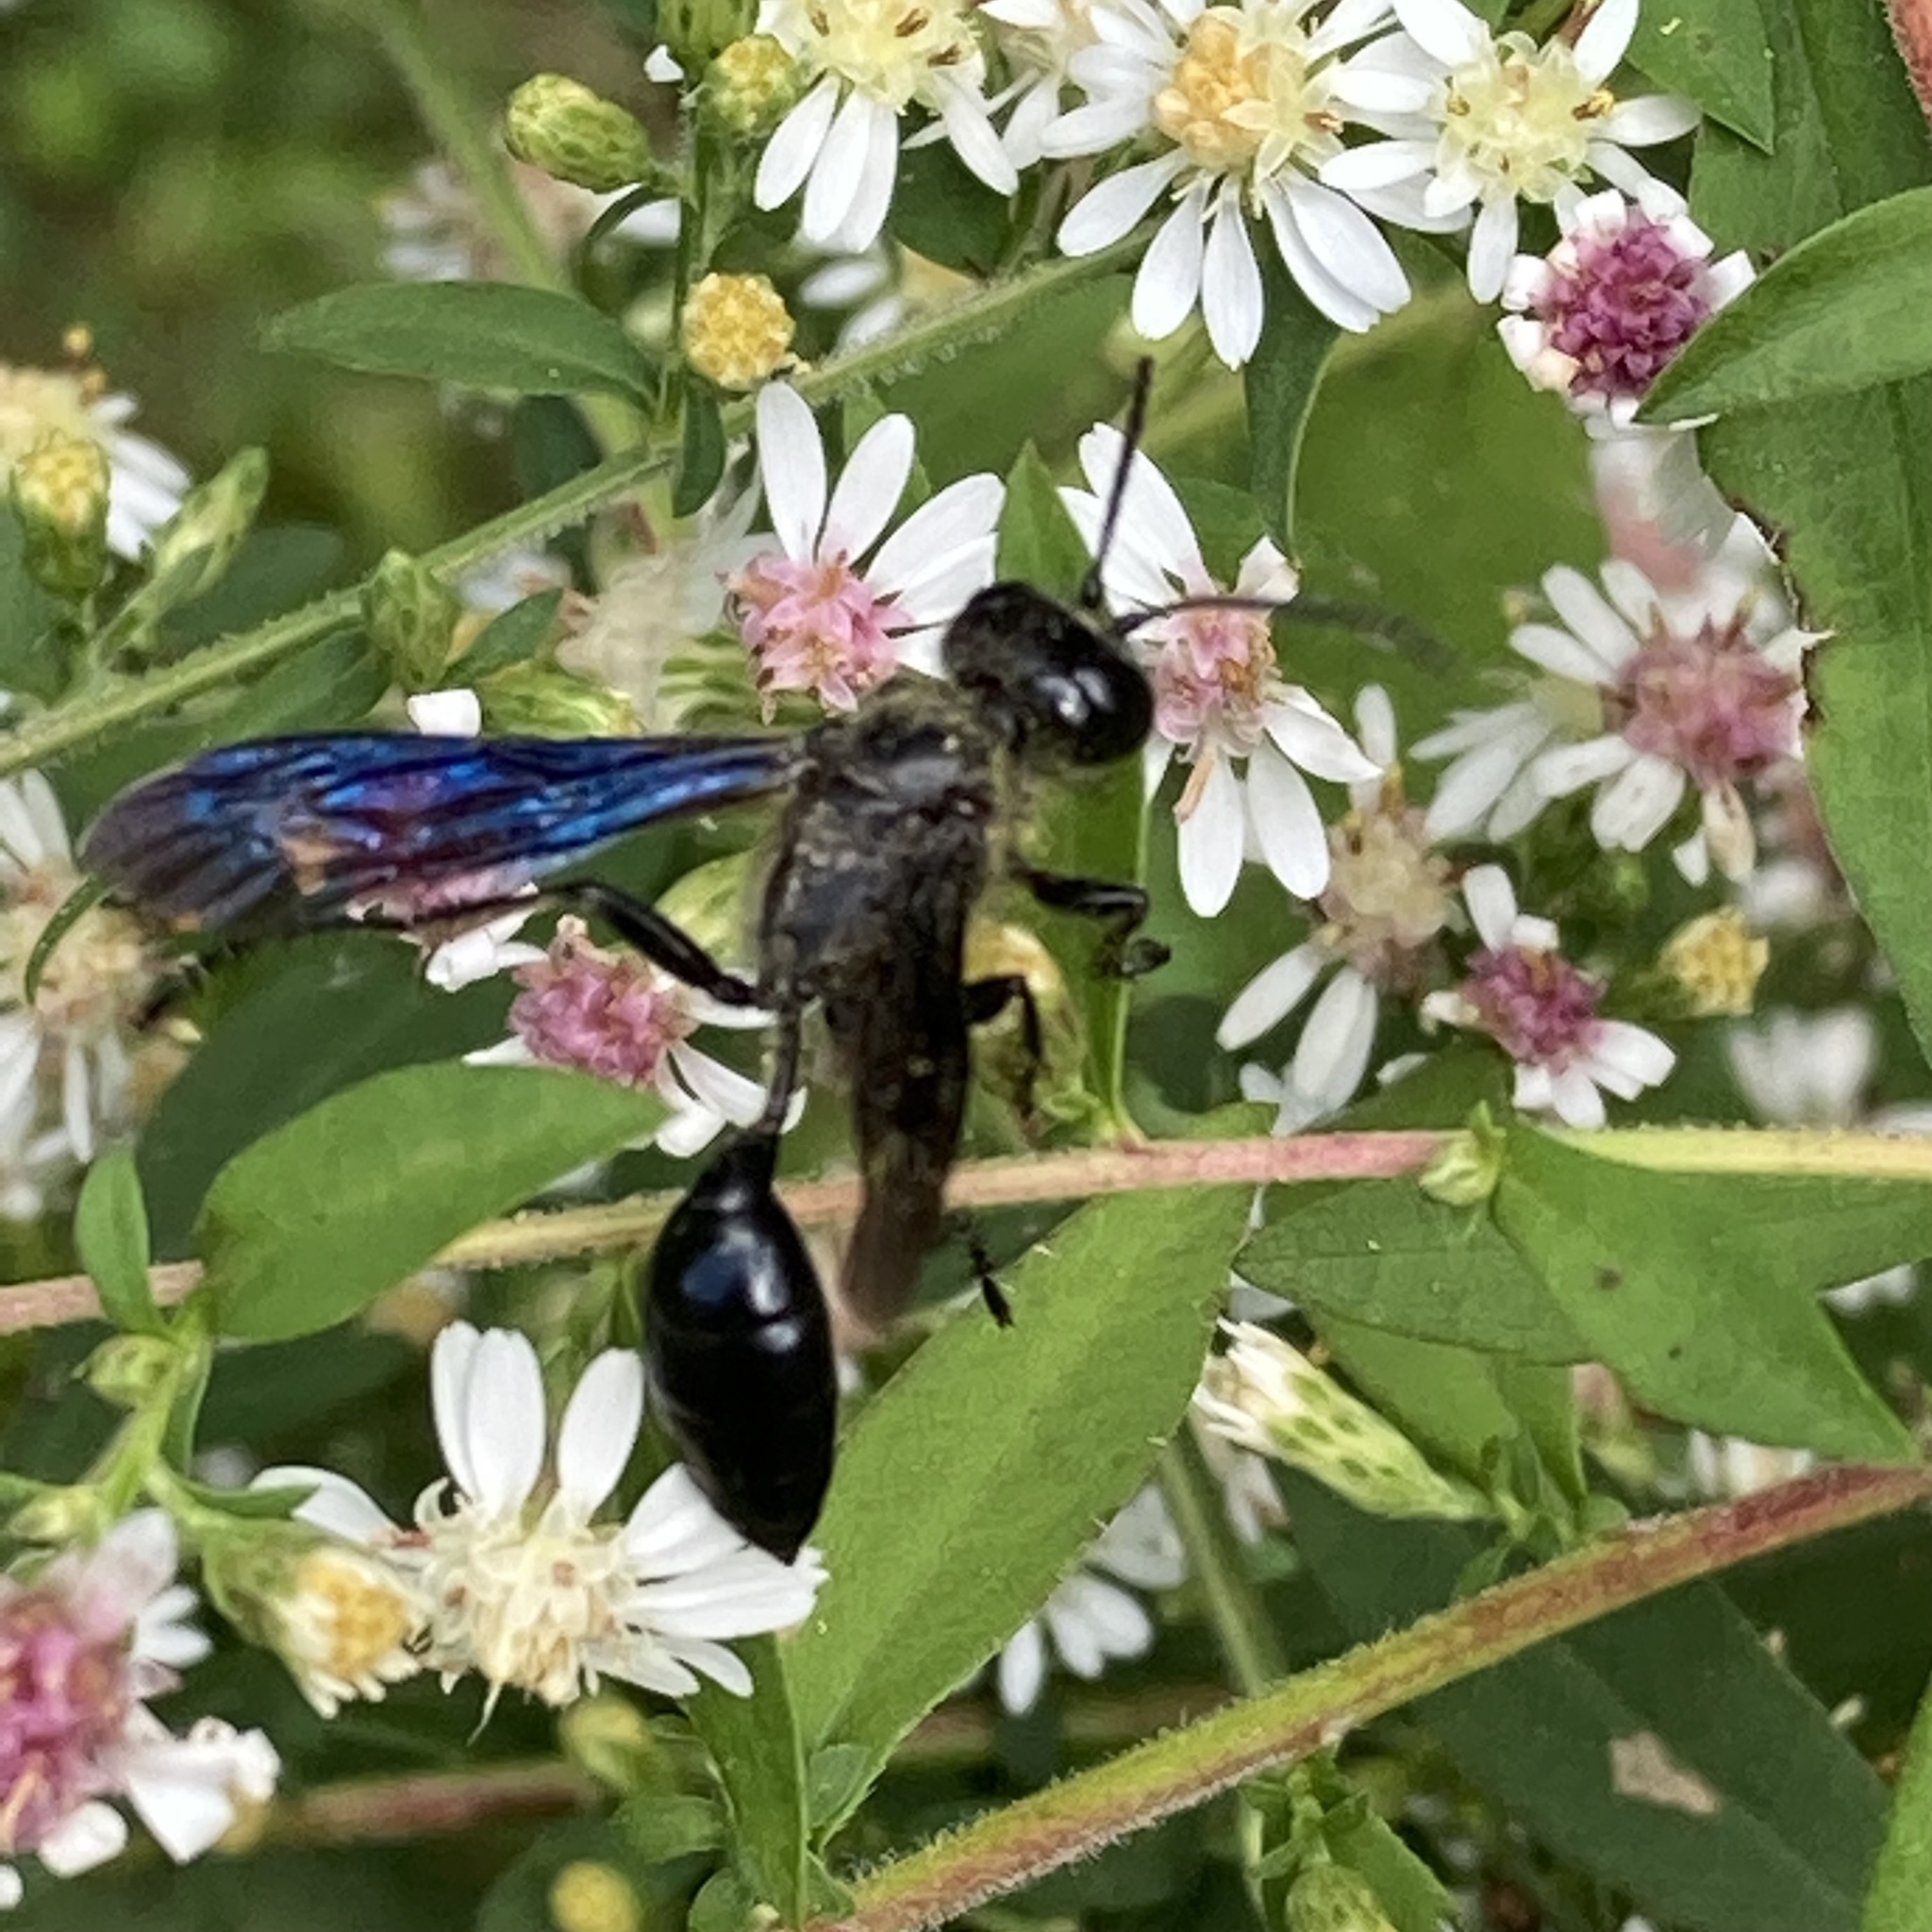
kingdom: Animalia
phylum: Arthropoda
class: Insecta
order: Hymenoptera
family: Sphecidae
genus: Isodontia
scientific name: Isodontia philadelphica
